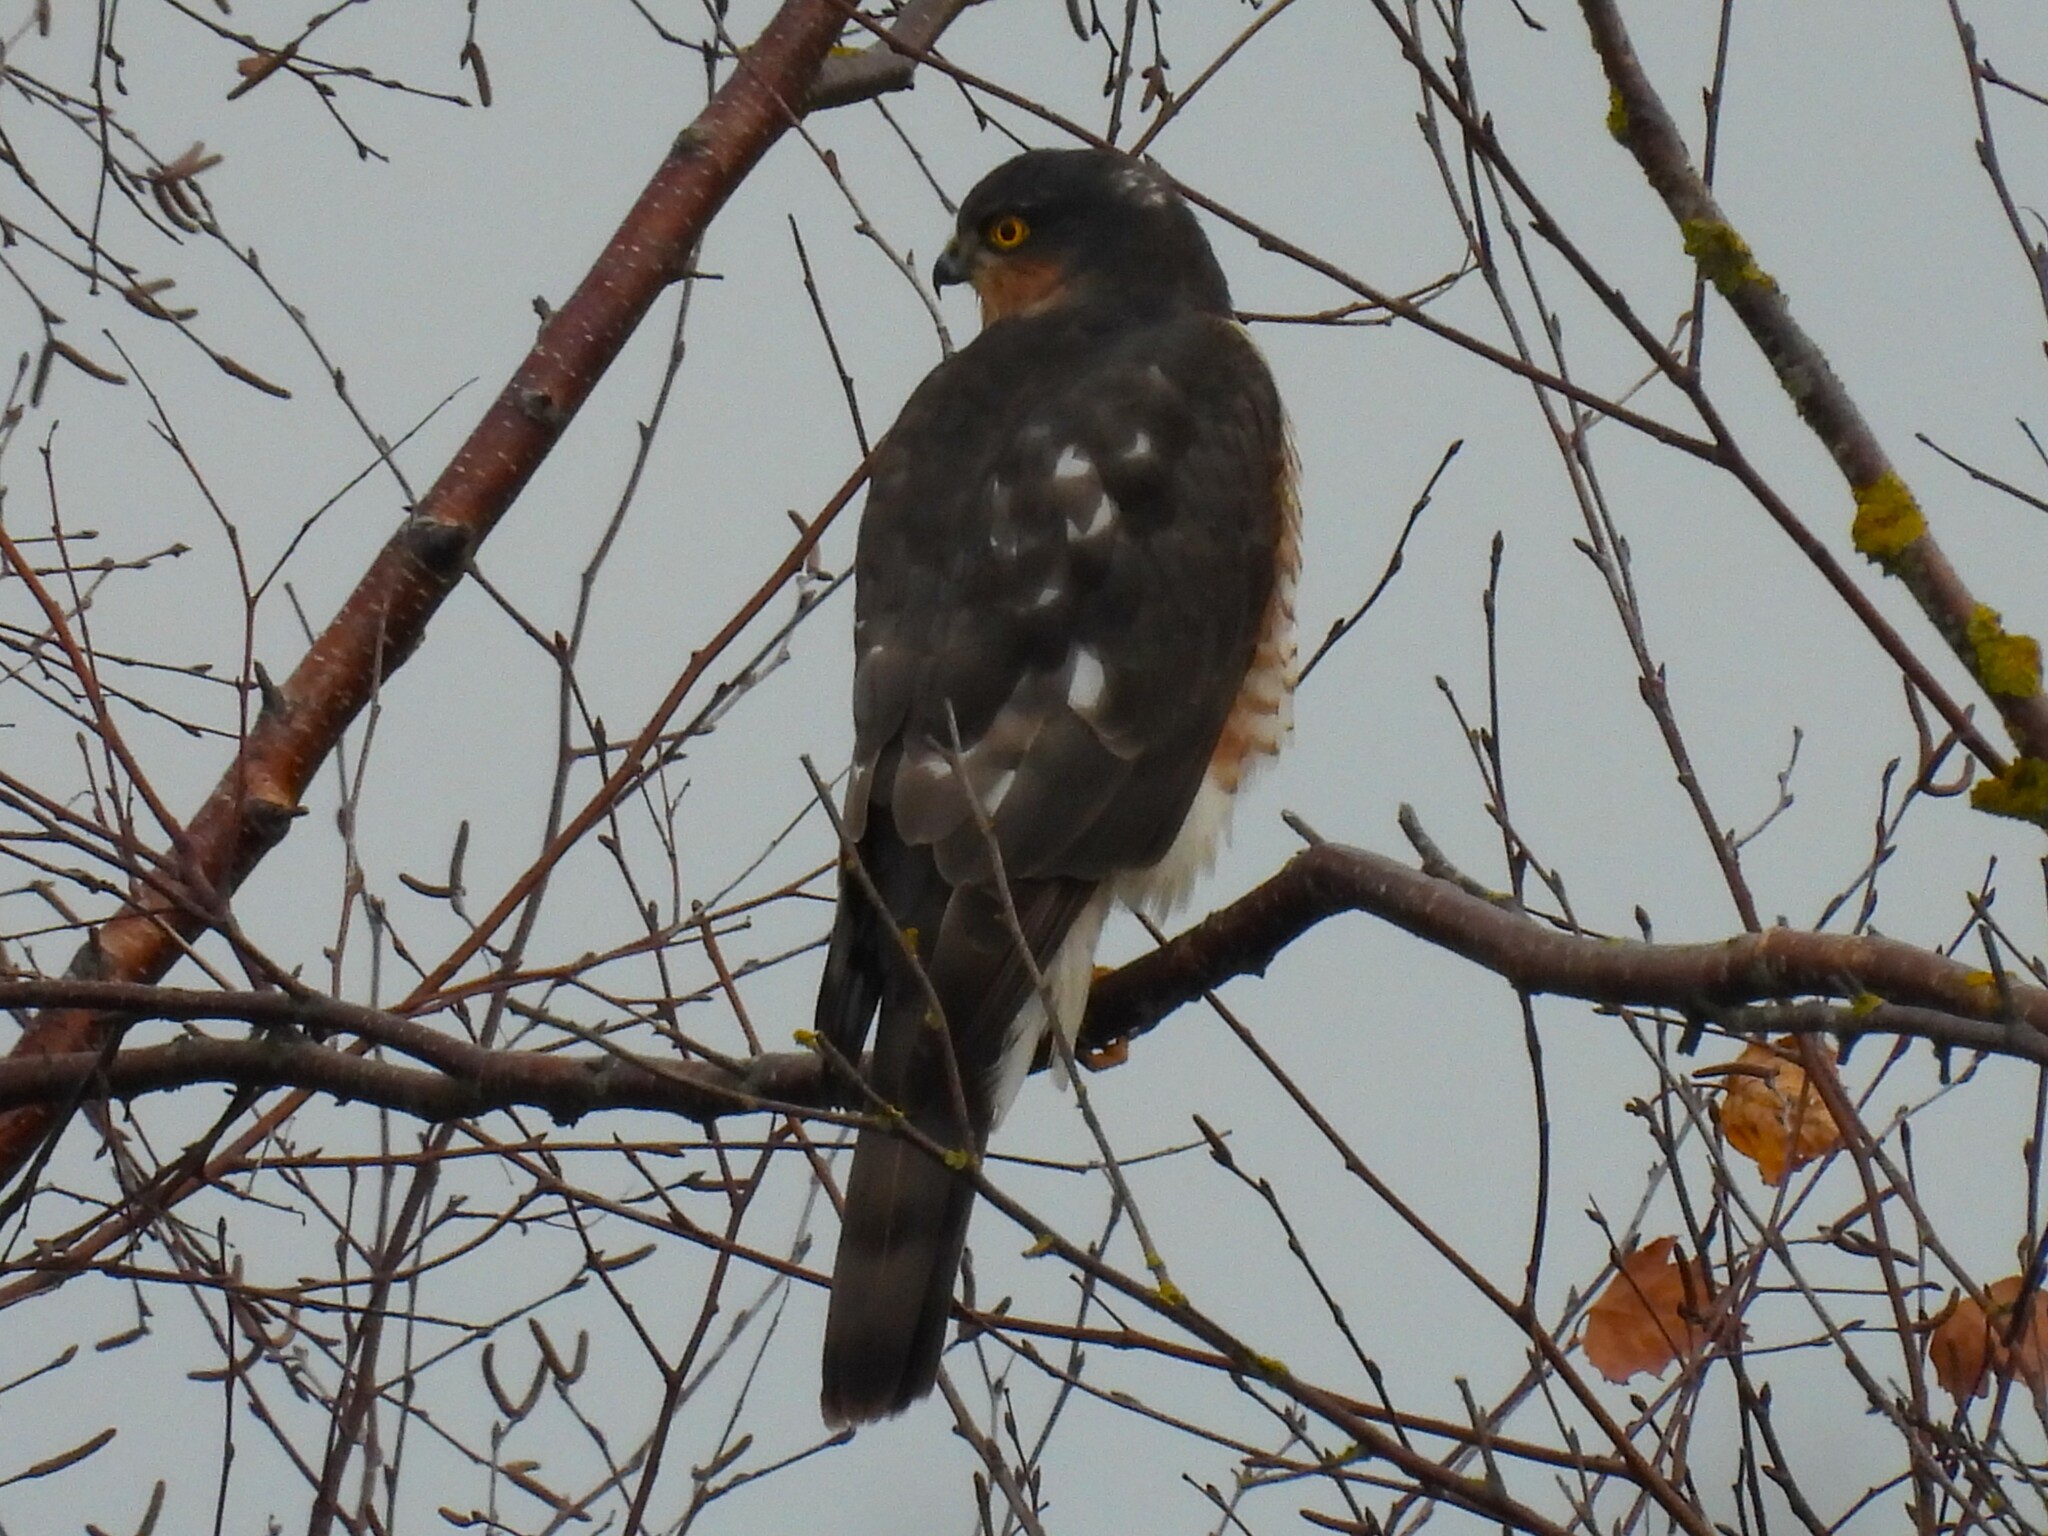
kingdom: Animalia
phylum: Chordata
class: Aves
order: Accipitriformes
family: Accipitridae
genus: Accipiter
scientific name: Accipiter nisus
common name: Eurasian sparrowhawk
